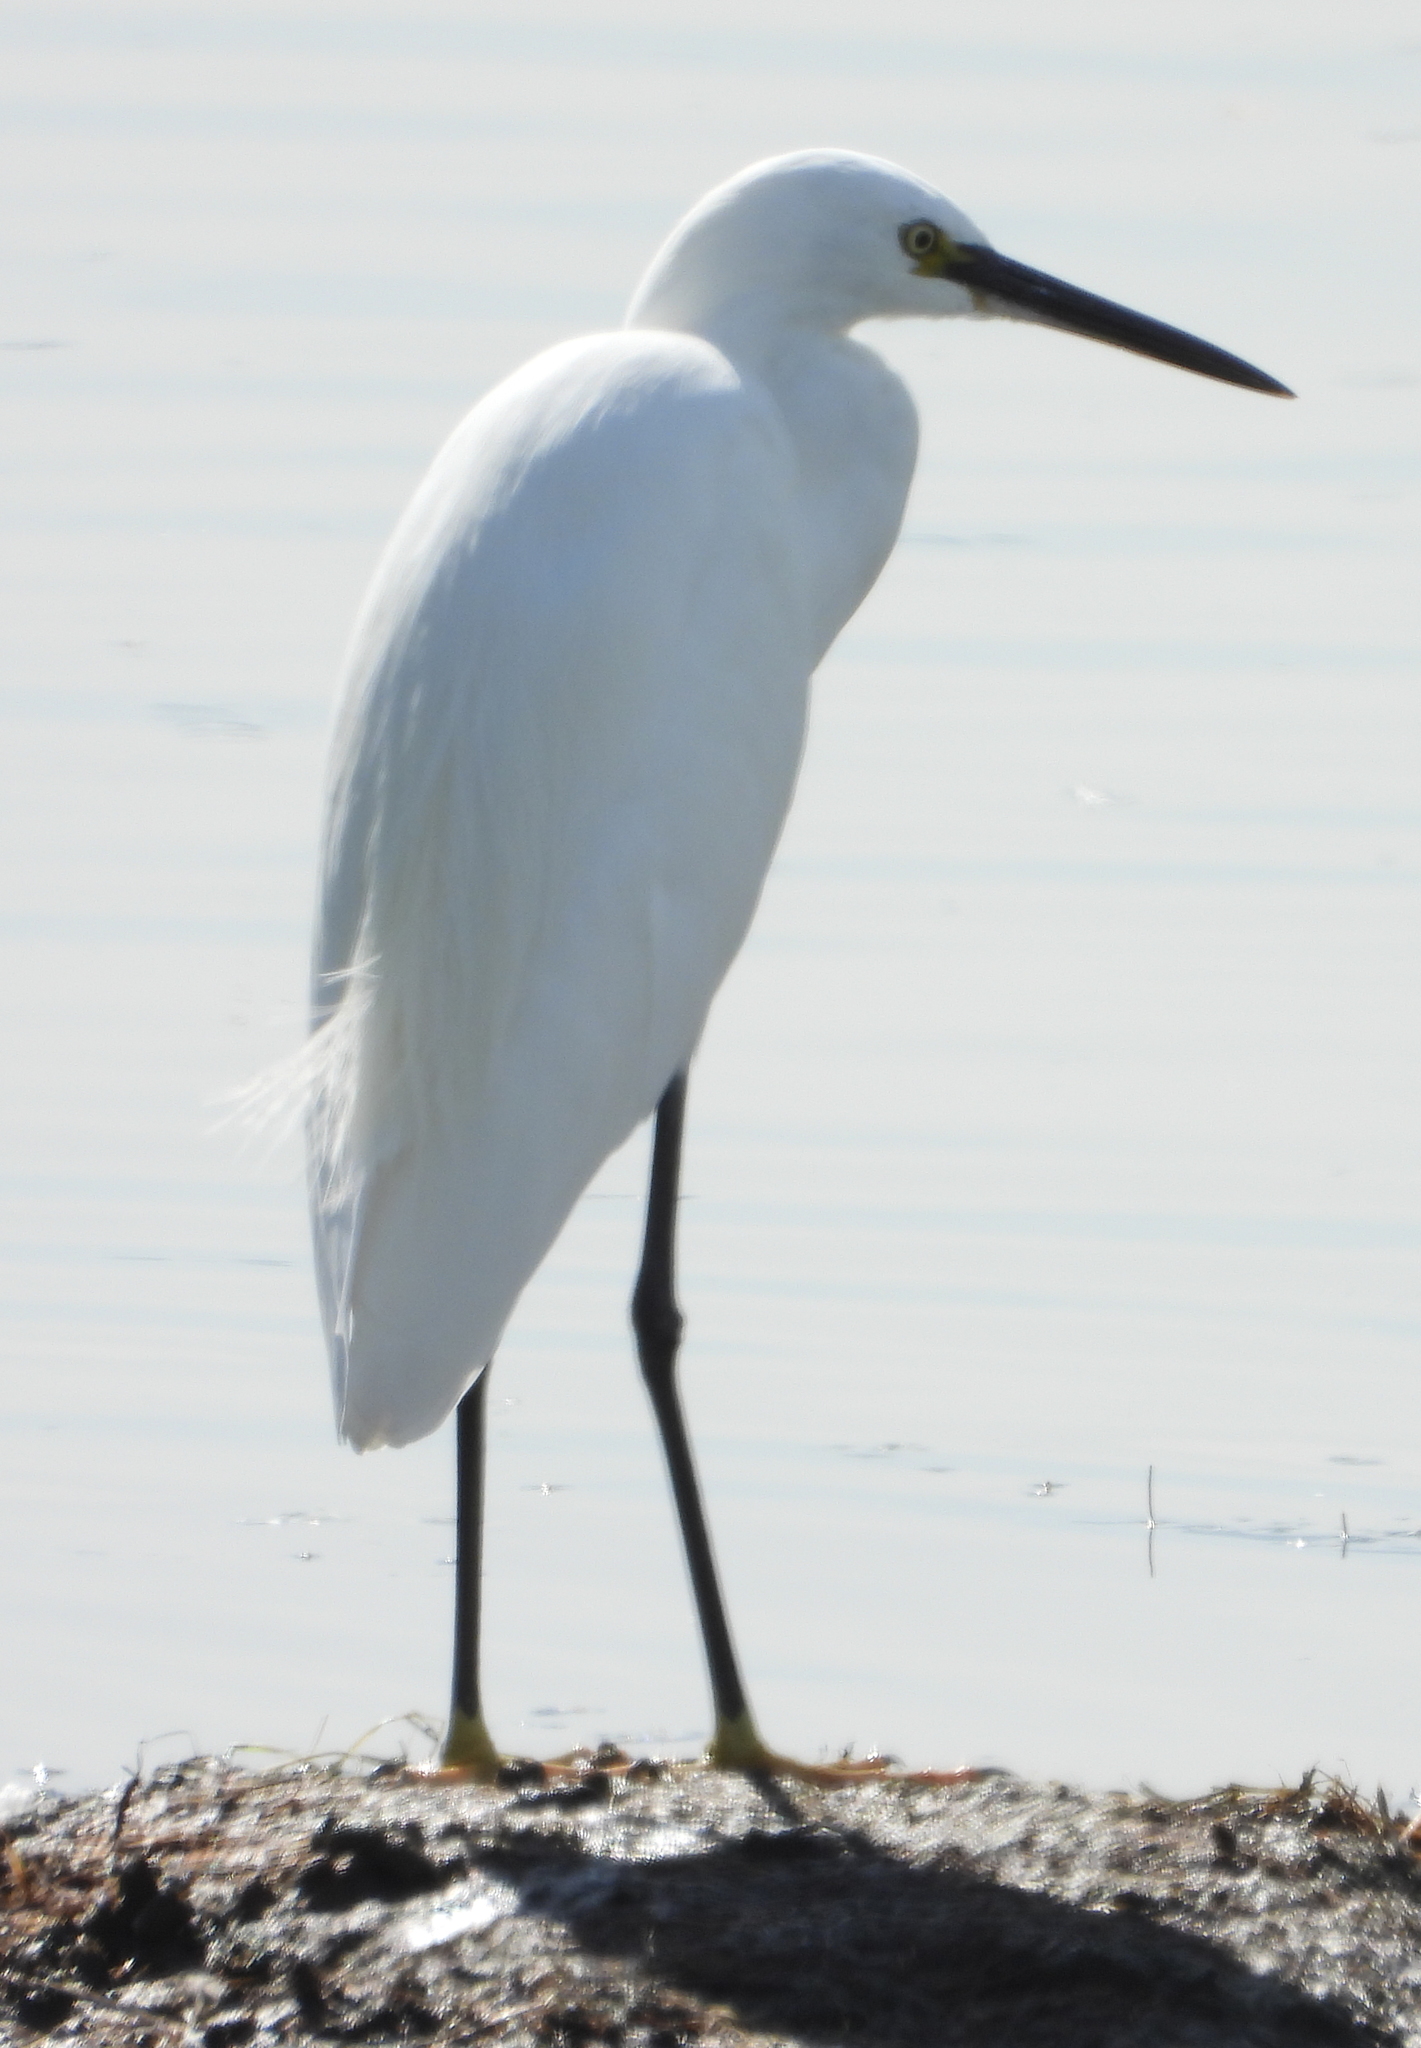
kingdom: Animalia
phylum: Chordata
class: Aves
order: Pelecaniformes
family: Ardeidae
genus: Egretta
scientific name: Egretta garzetta
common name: Little egret
